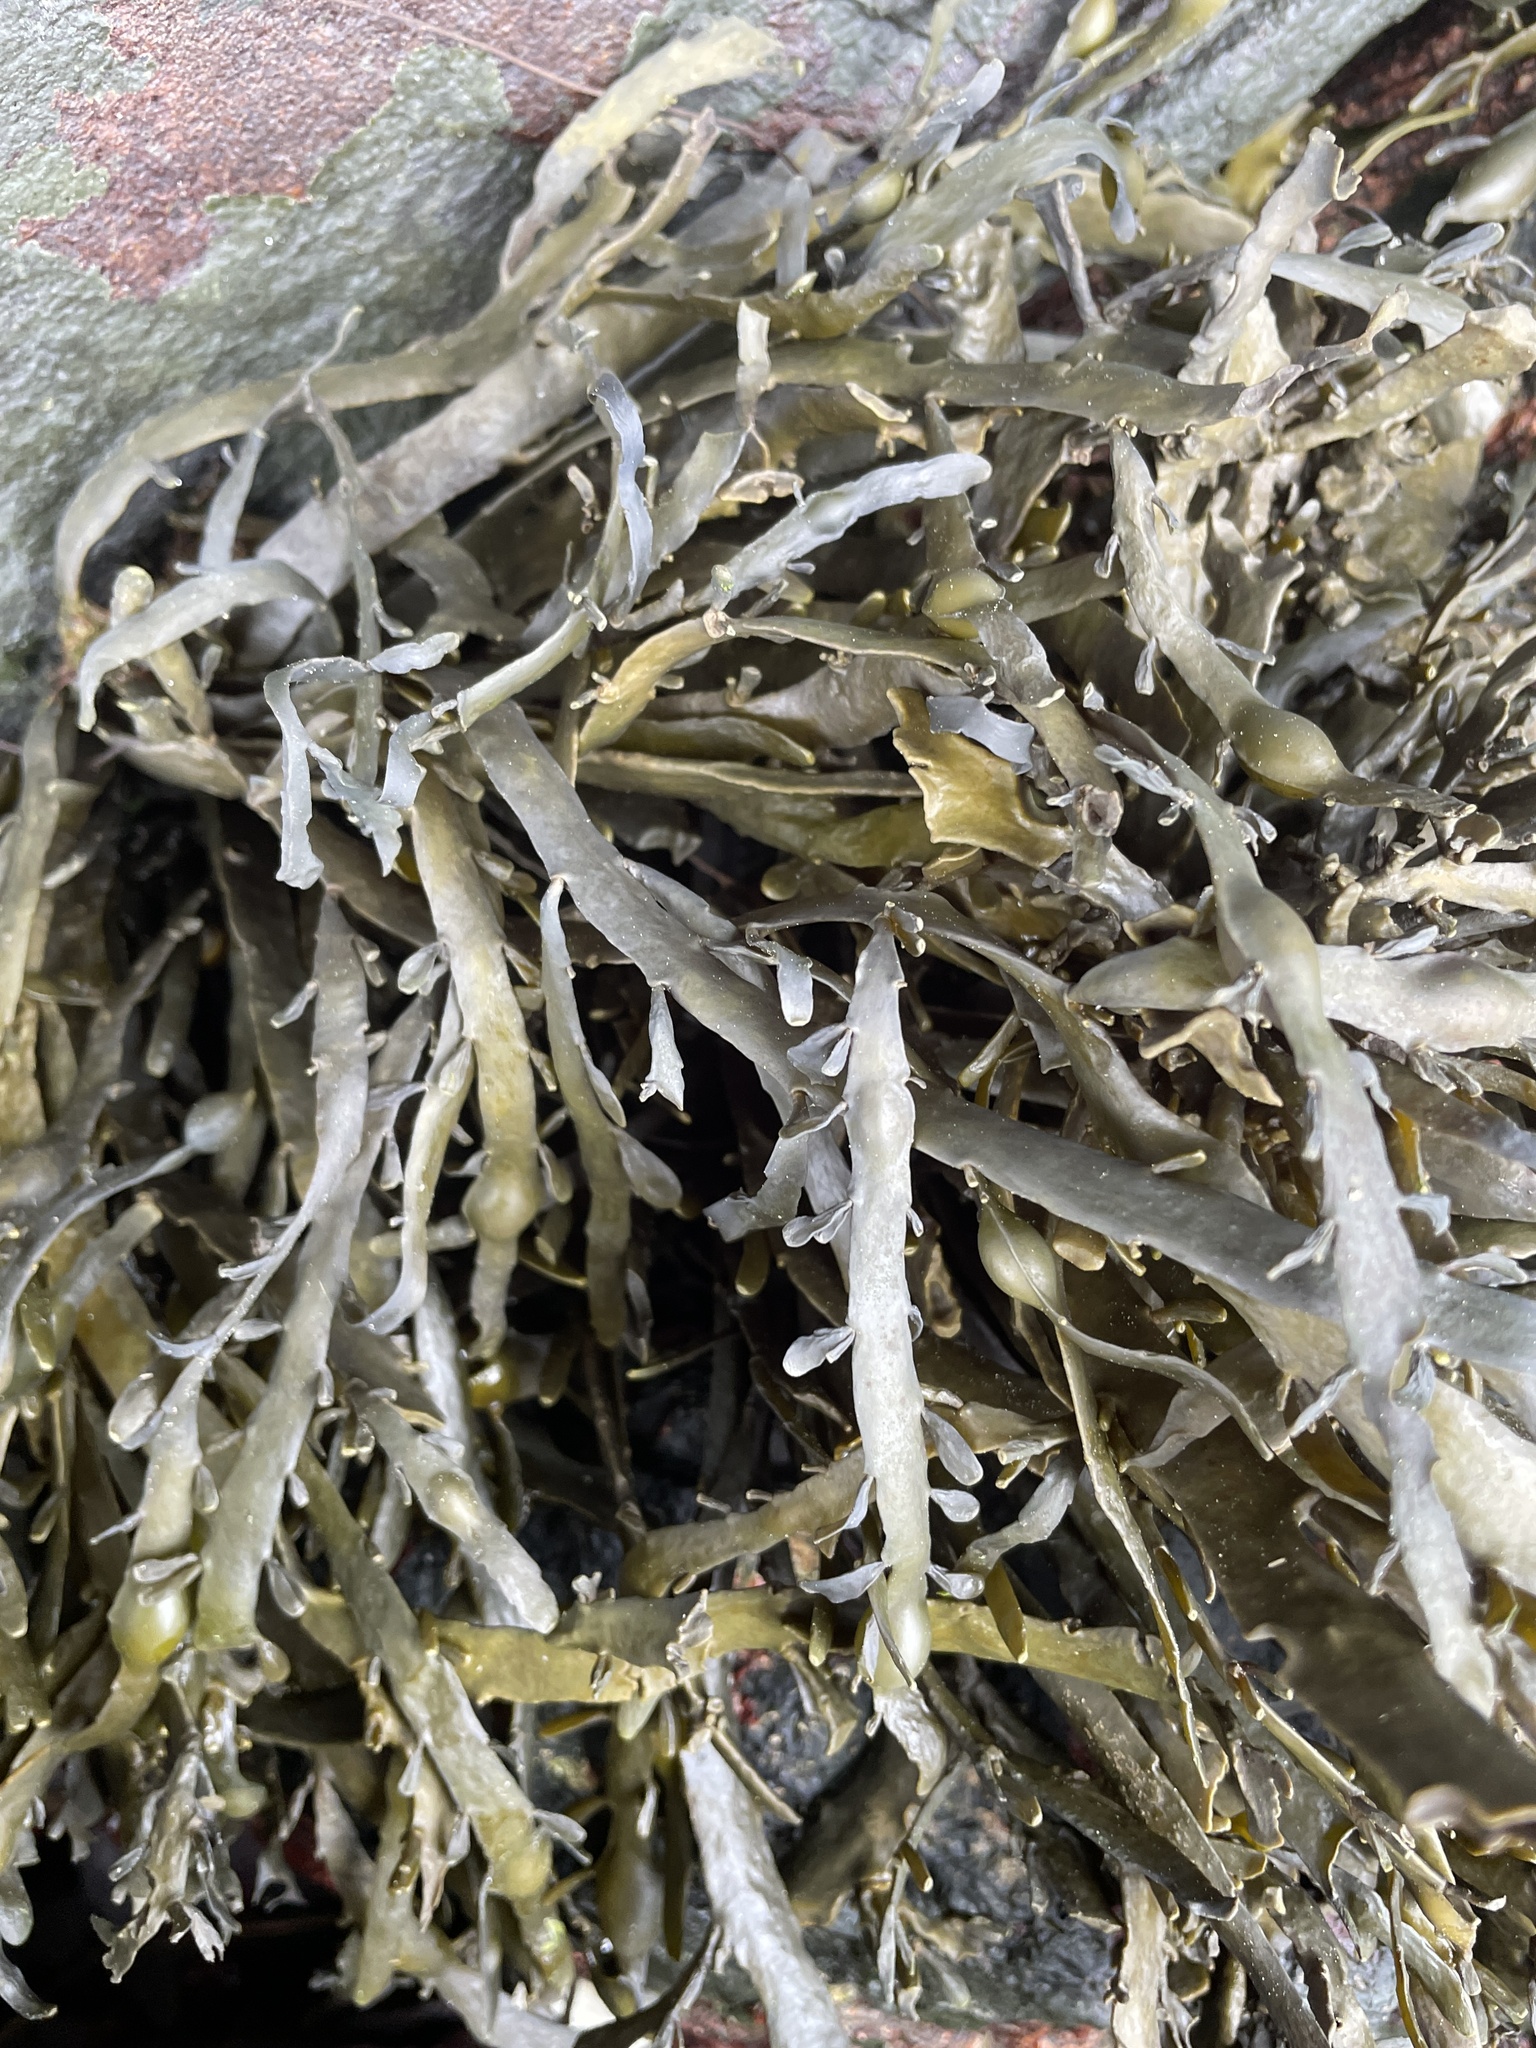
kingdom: Chromista
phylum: Ochrophyta
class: Phaeophyceae
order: Fucales
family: Fucaceae
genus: Ascophyllum
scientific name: Ascophyllum nodosum
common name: Knotted wrack
